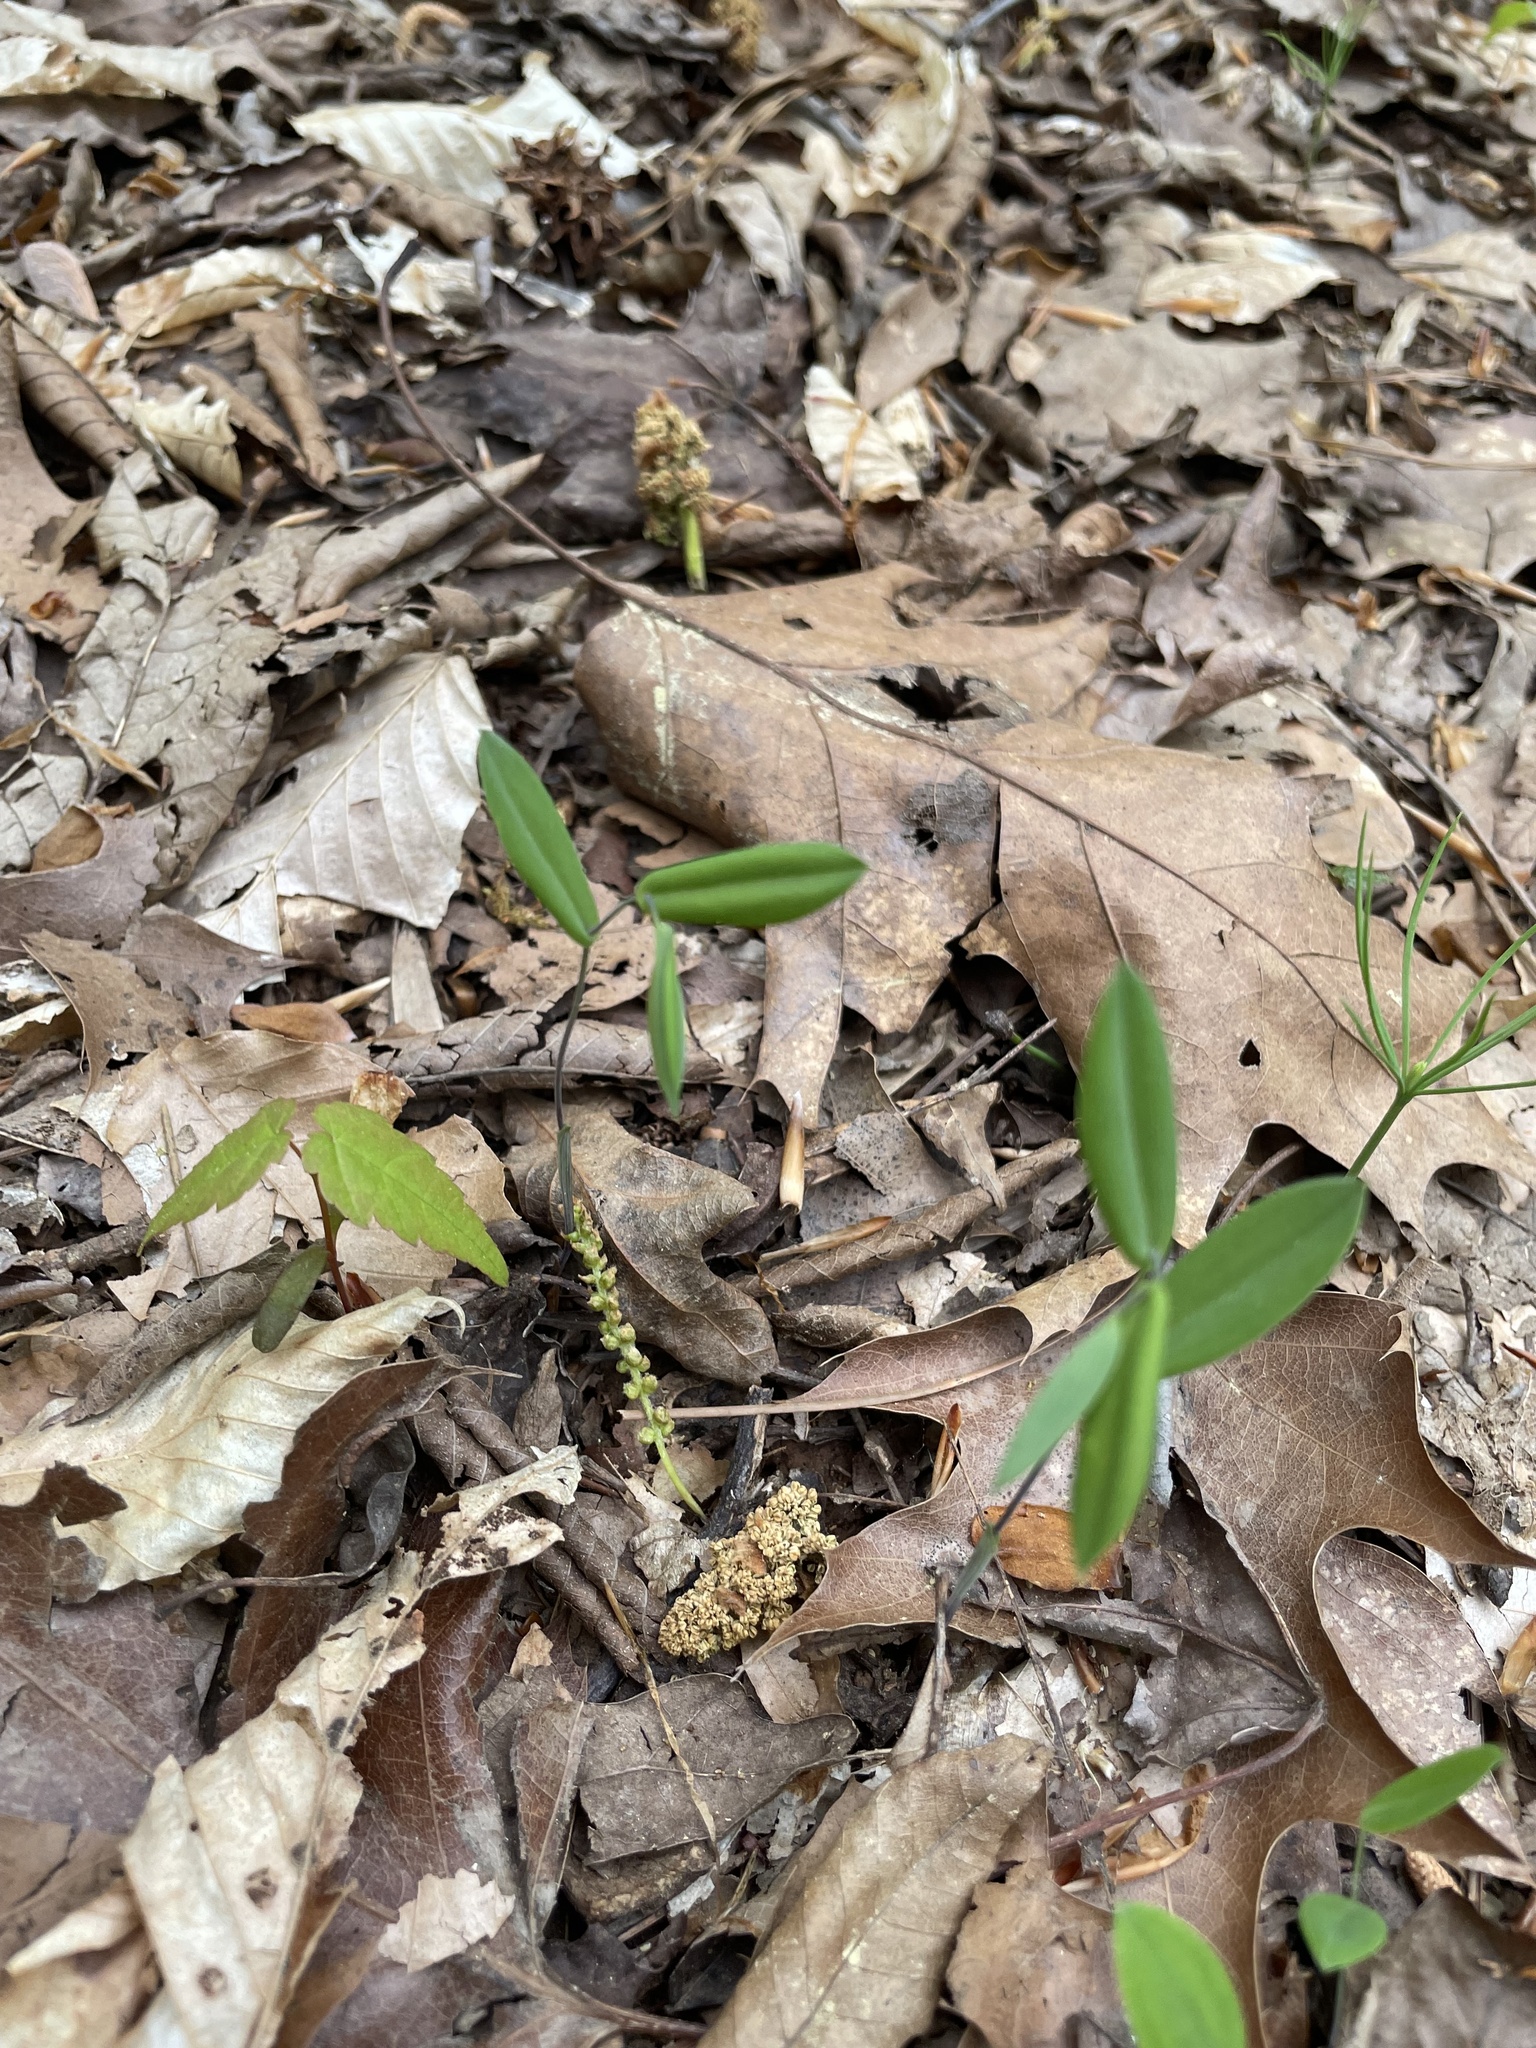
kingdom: Plantae
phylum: Tracheophyta
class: Liliopsida
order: Liliales
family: Colchicaceae
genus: Uvularia
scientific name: Uvularia perfoliata
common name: Perfoliate bellwort
